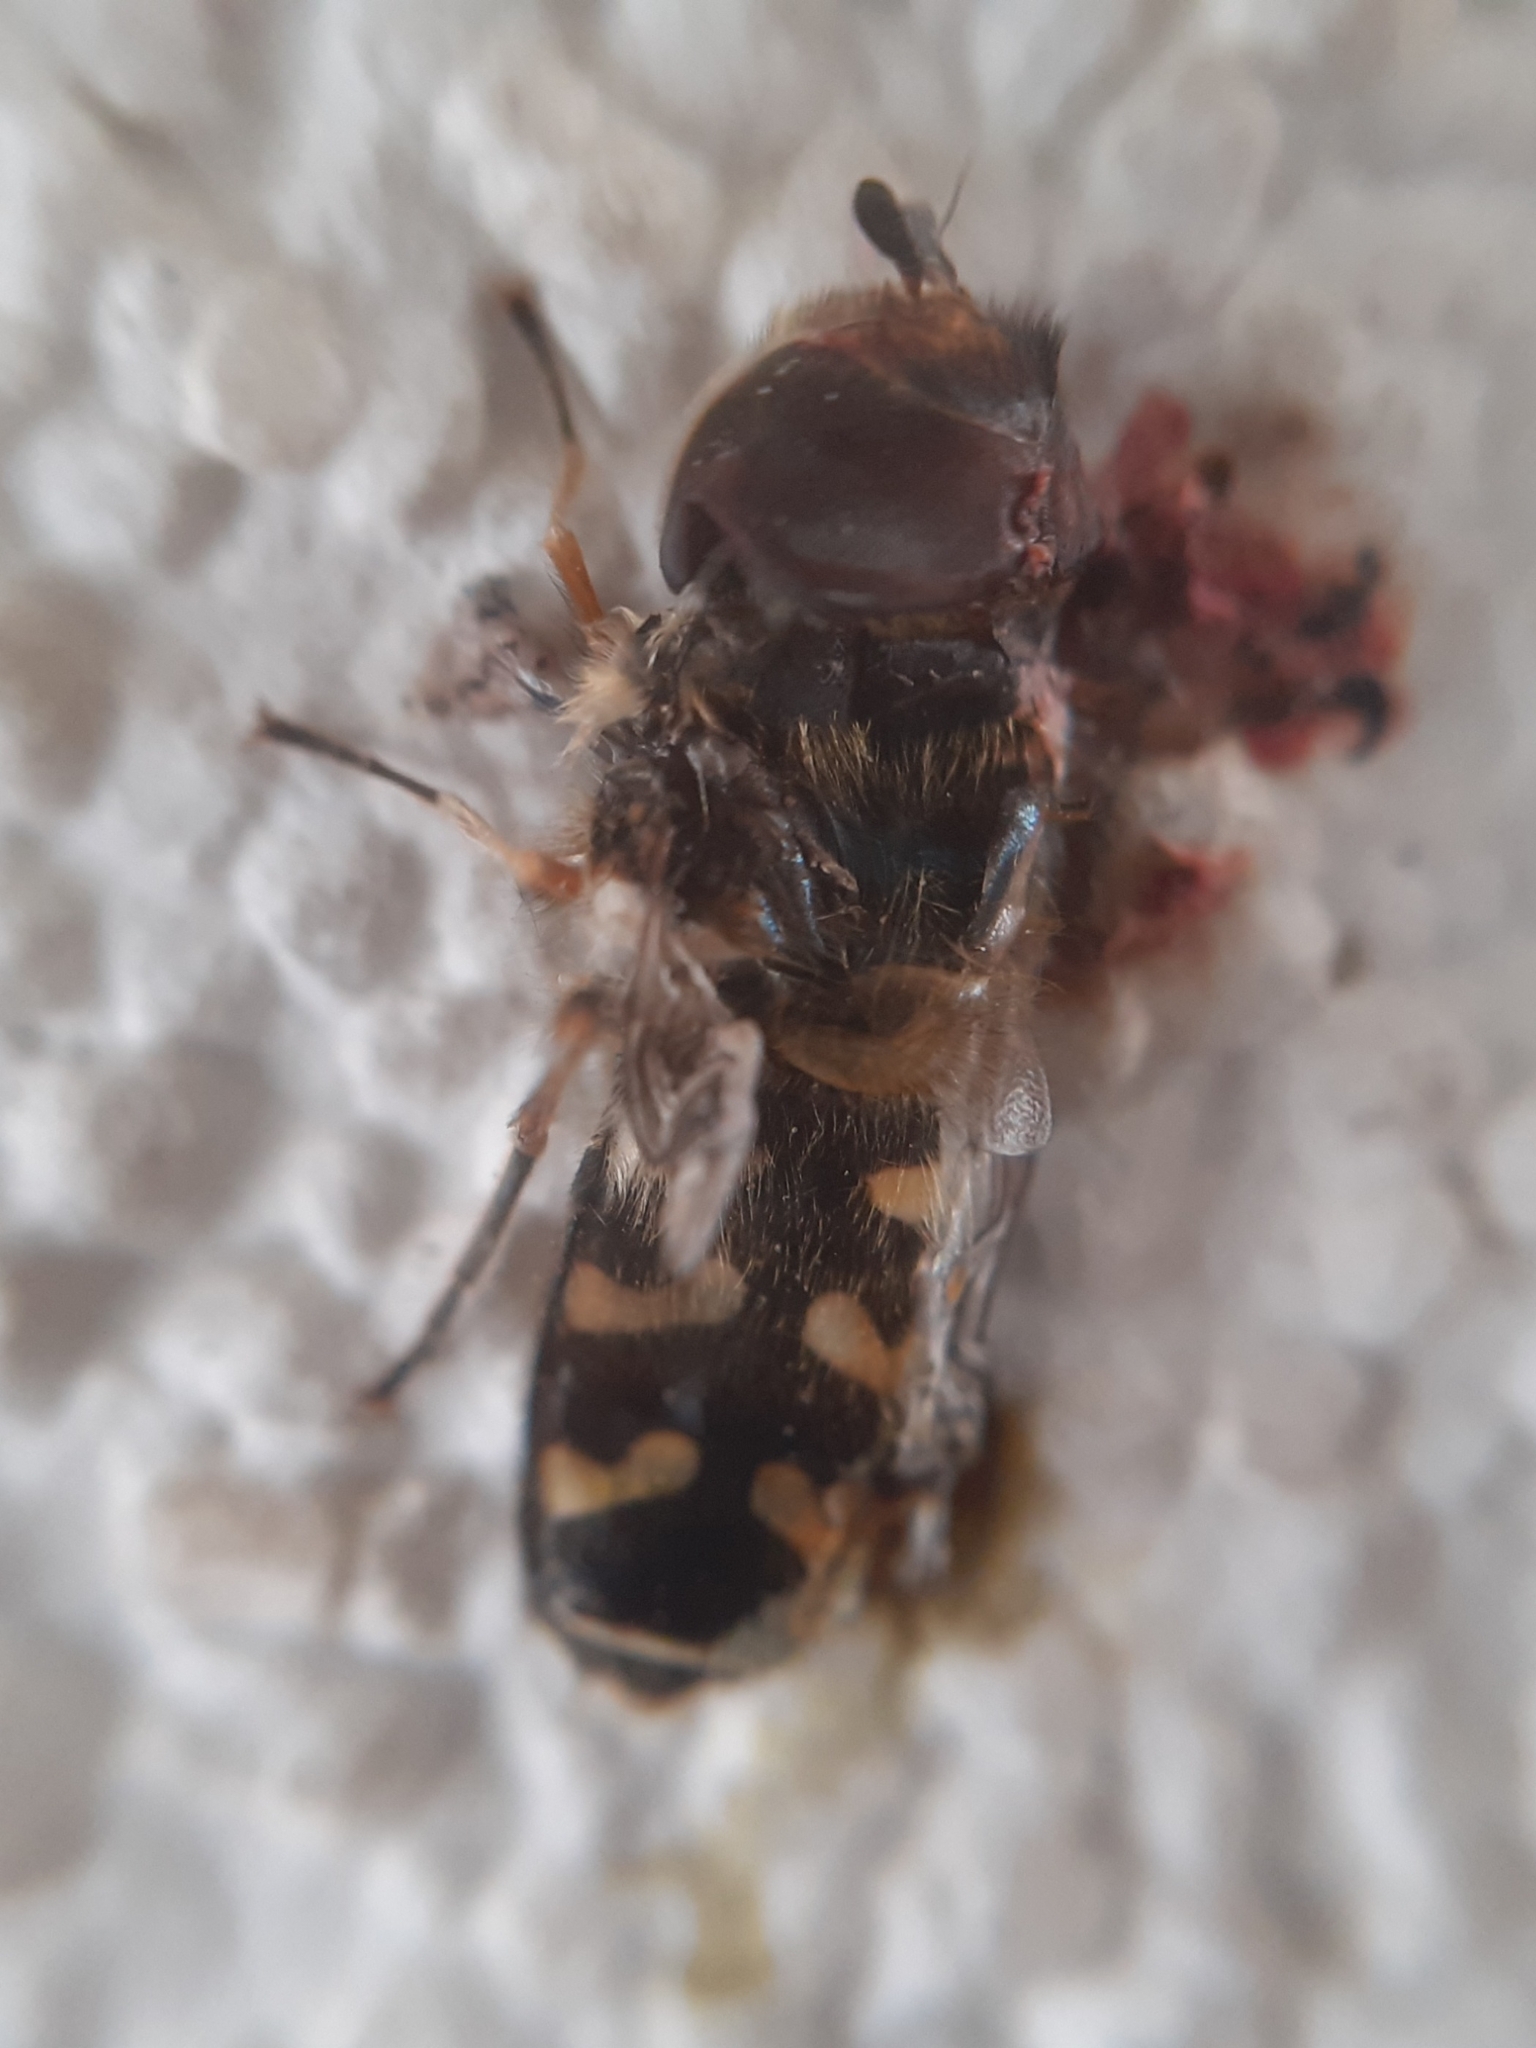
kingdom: Animalia
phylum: Arthropoda
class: Insecta
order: Diptera
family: Syrphidae
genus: Scaeva
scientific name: Scaeva pyrastri
